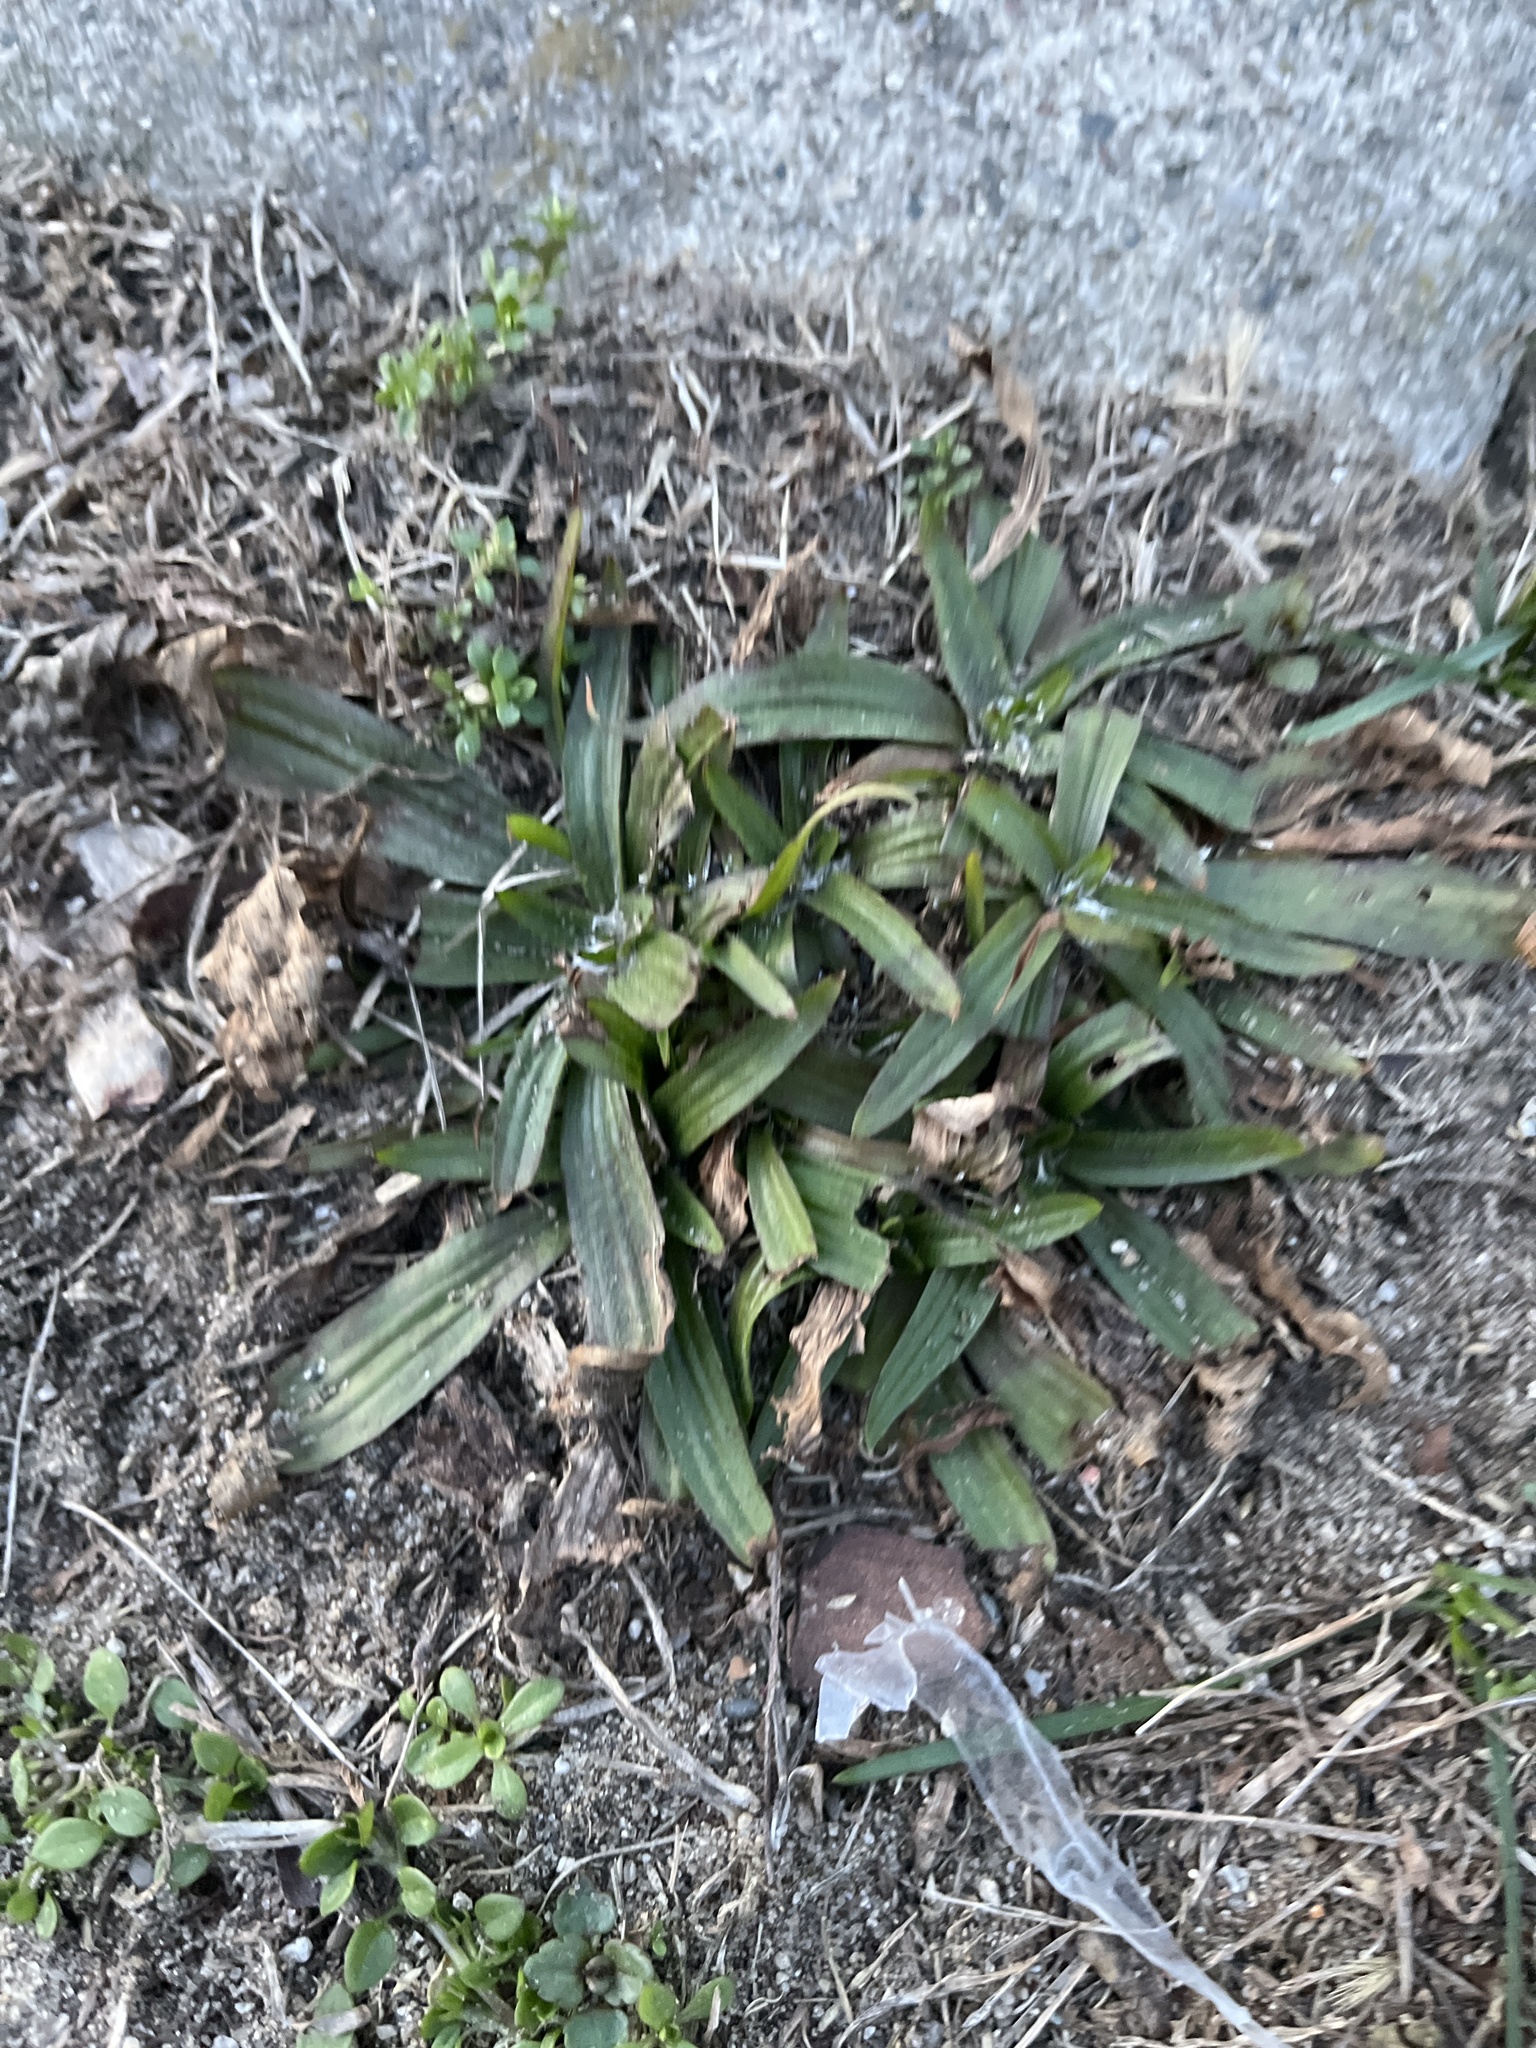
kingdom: Plantae
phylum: Tracheophyta
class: Magnoliopsida
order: Lamiales
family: Plantaginaceae
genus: Plantago
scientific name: Plantago lanceolata
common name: Ribwort plantain
